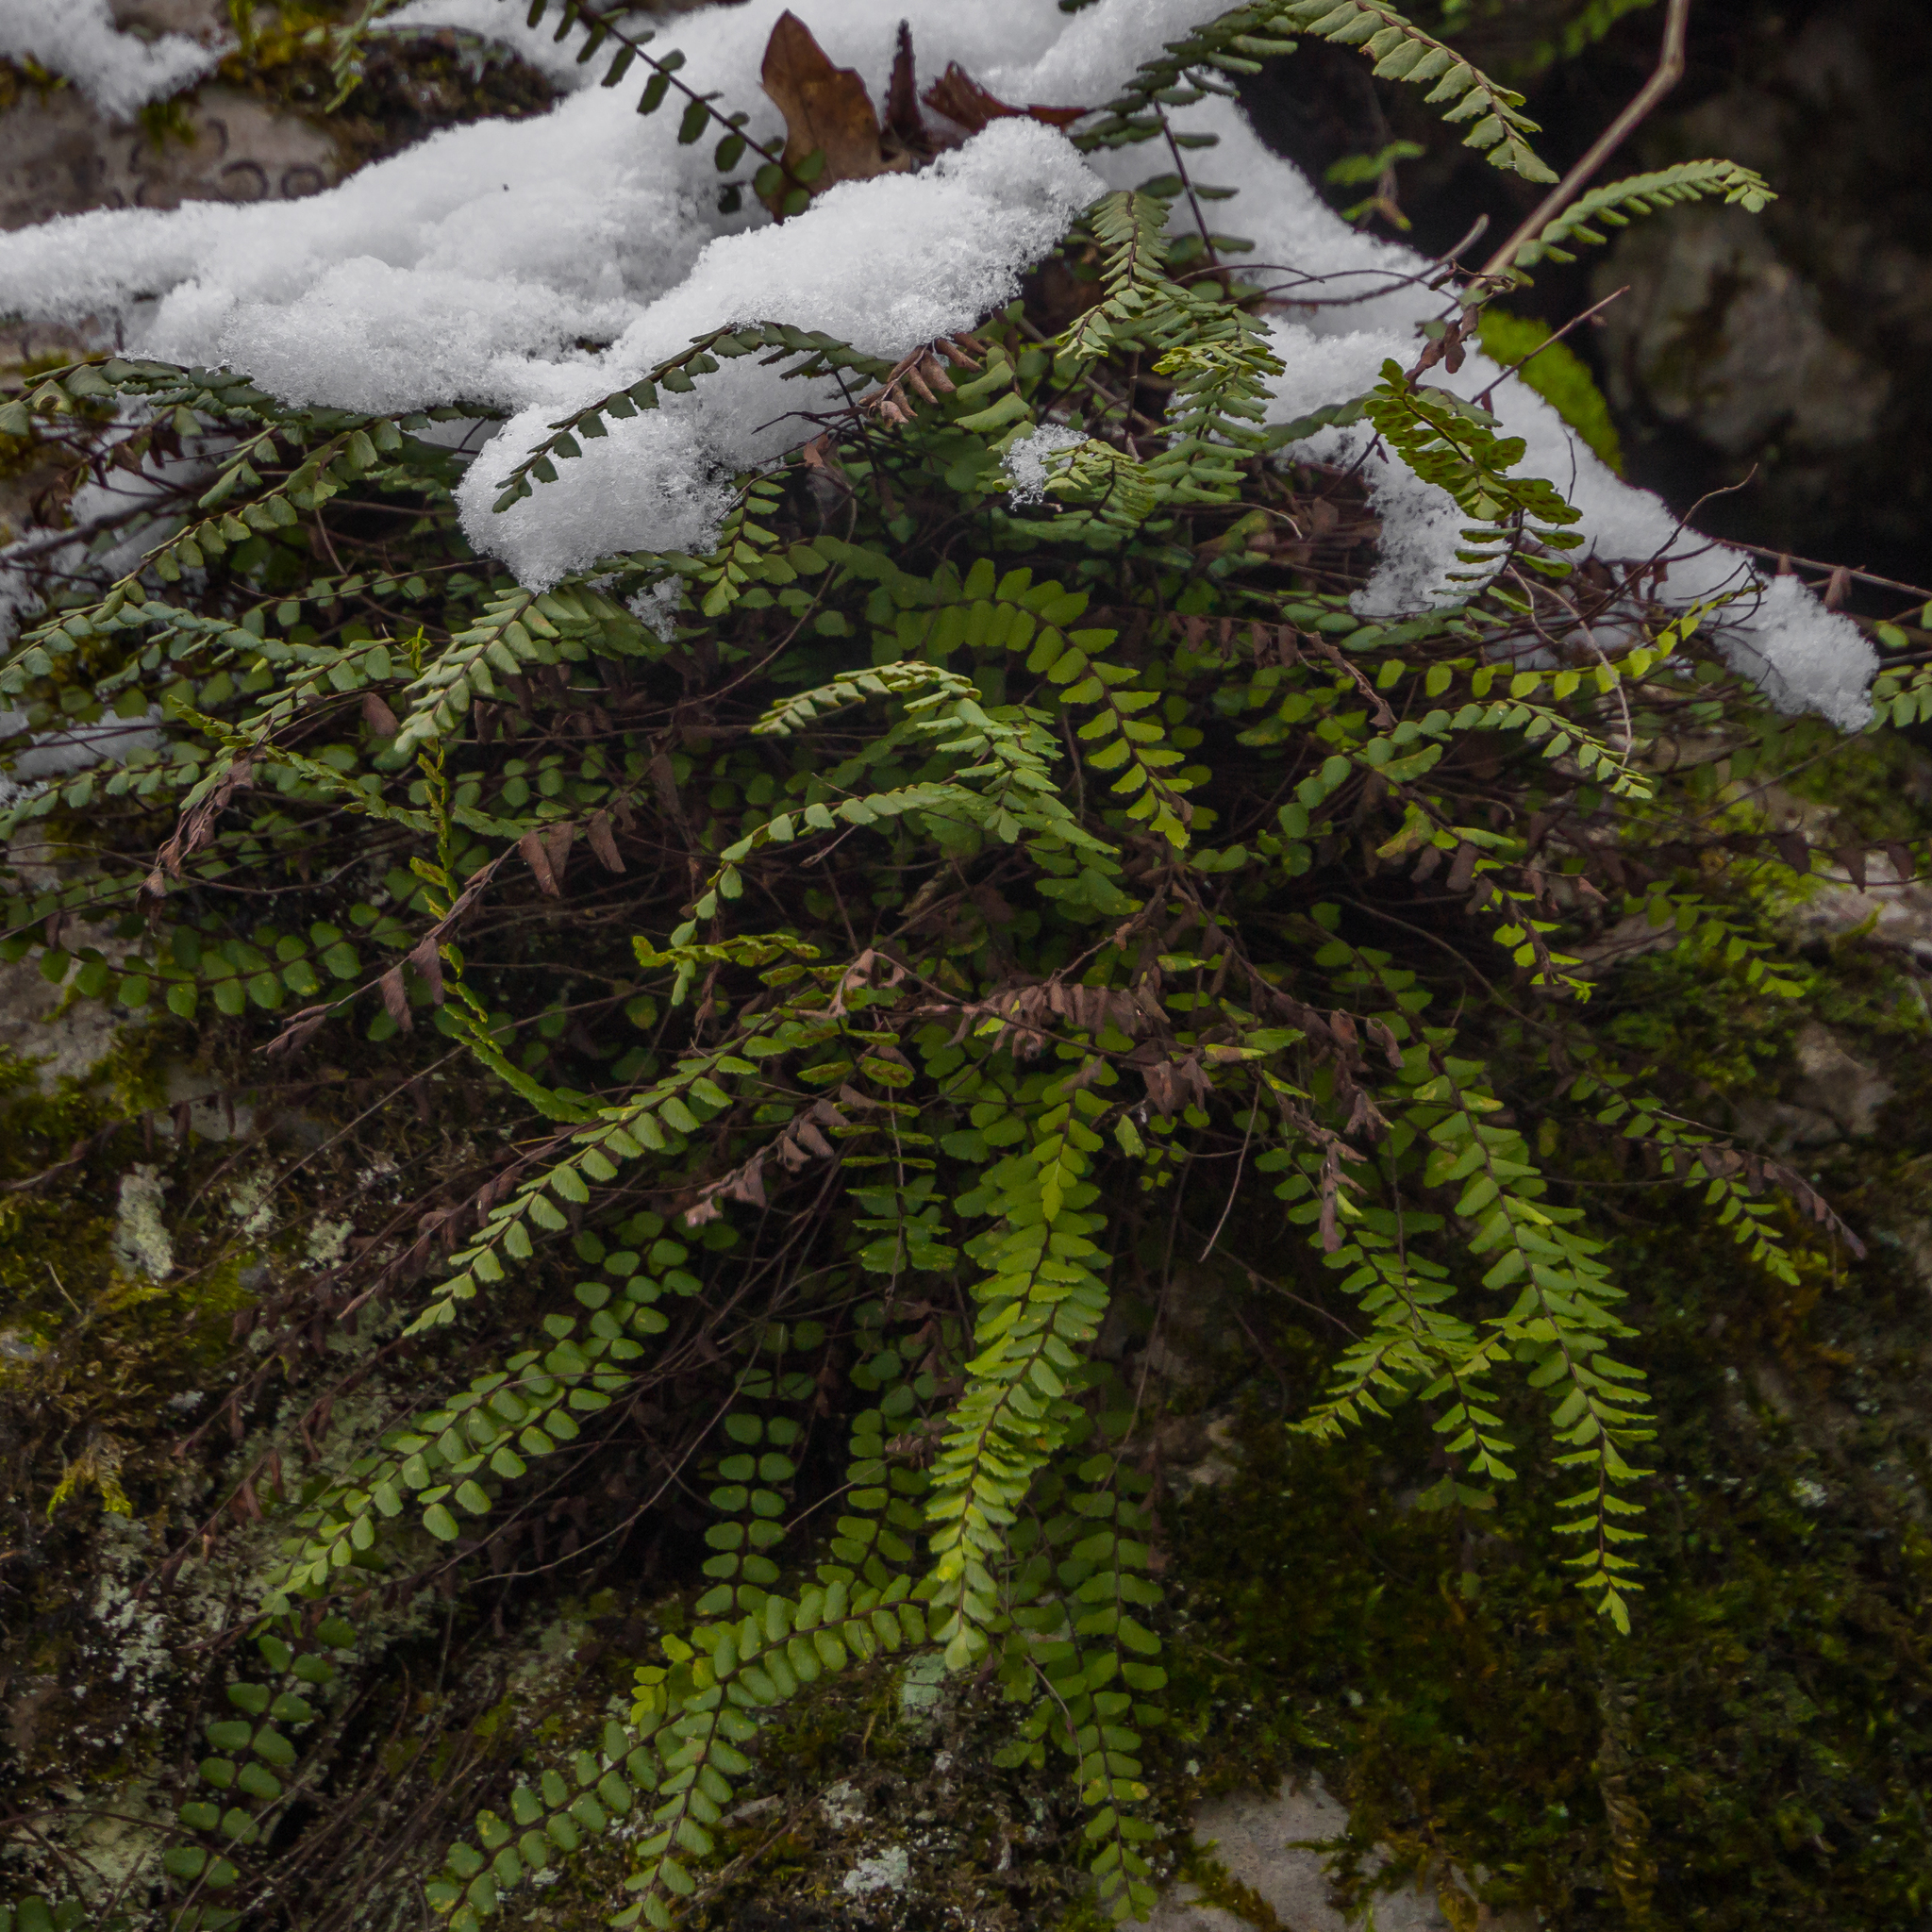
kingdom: Plantae
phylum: Tracheophyta
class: Polypodiopsida
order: Polypodiales
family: Aspleniaceae
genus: Asplenium
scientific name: Asplenium trichomanes
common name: Maidenhair spleenwort
